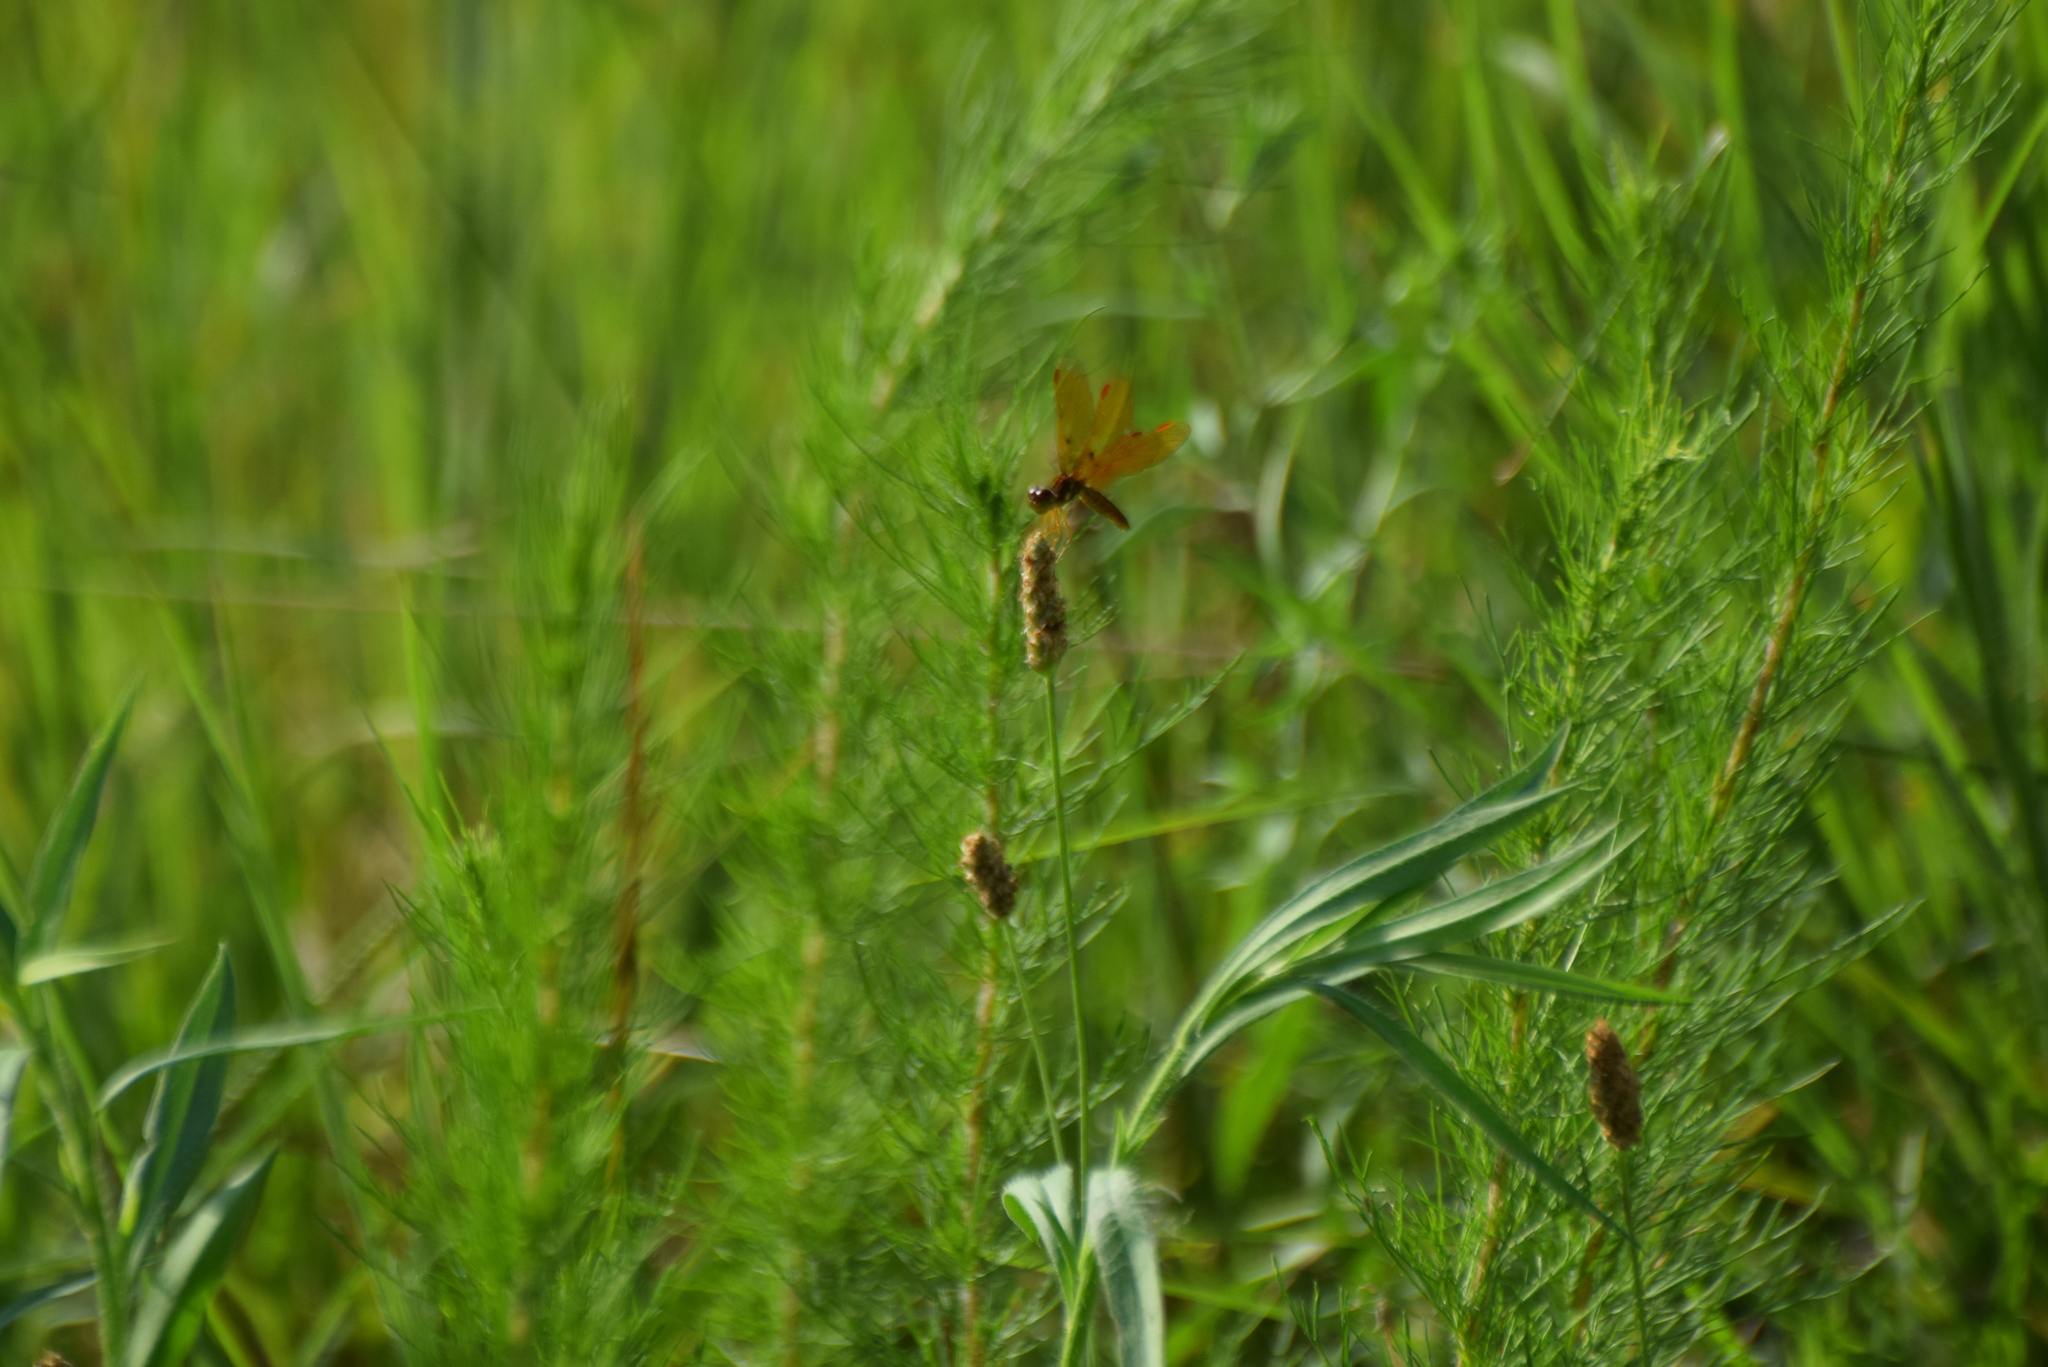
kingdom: Animalia
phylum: Arthropoda
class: Insecta
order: Odonata
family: Libellulidae
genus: Perithemis
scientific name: Perithemis tenera
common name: Eastern amberwing
